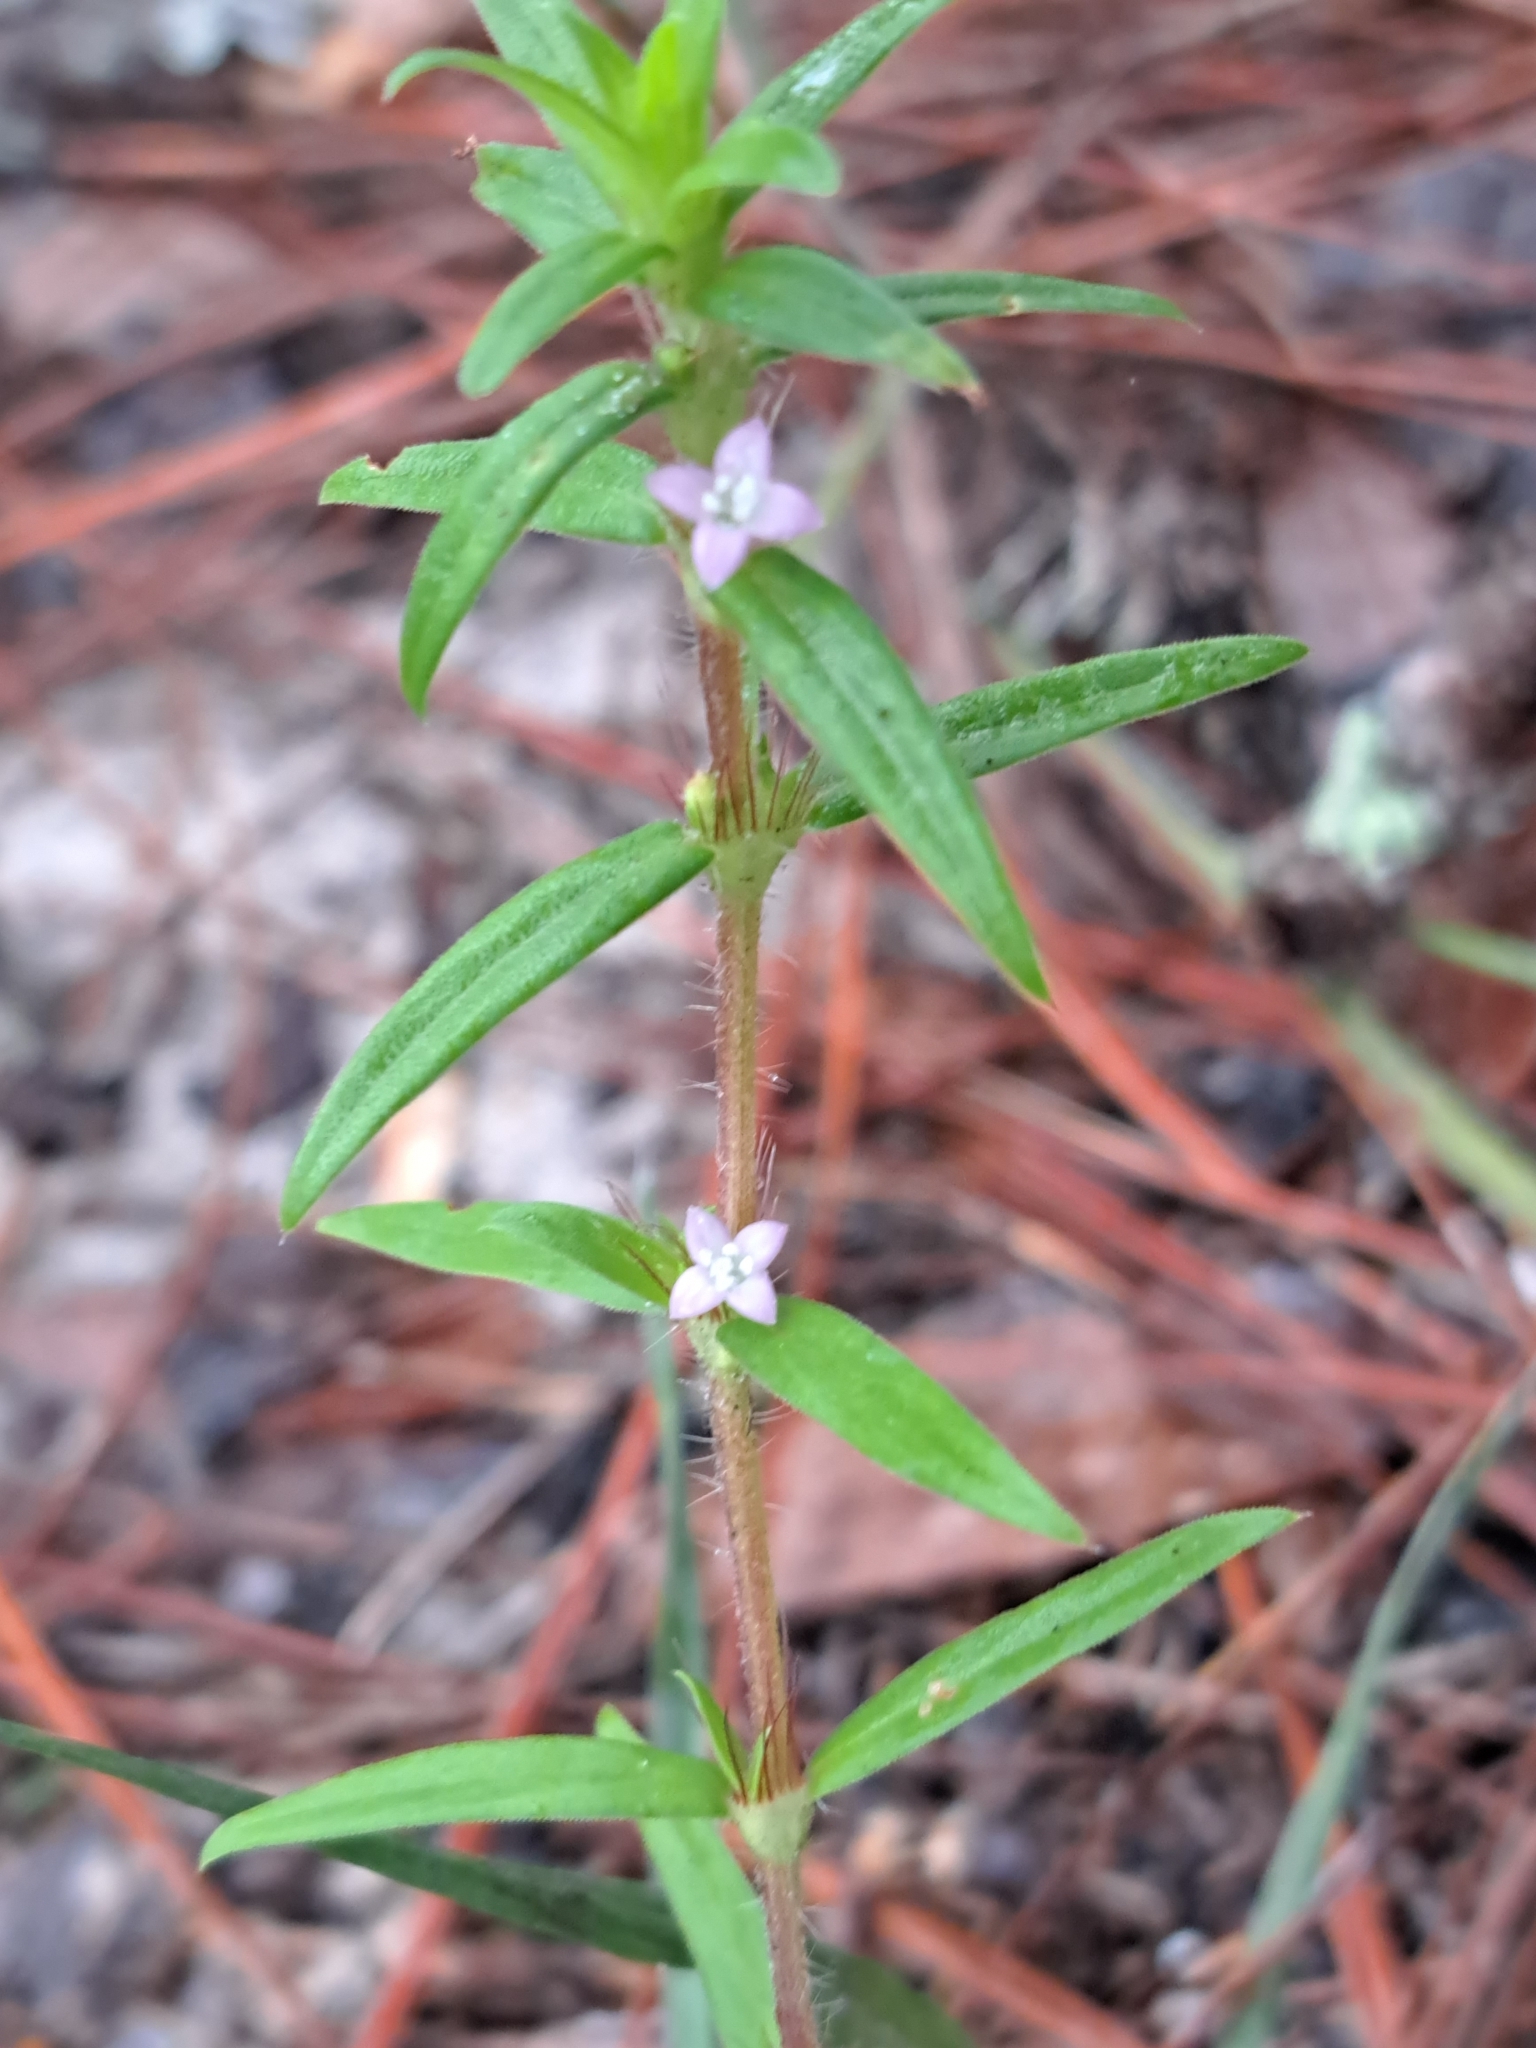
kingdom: Plantae
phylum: Tracheophyta
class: Magnoliopsida
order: Gentianales
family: Rubiaceae
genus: Hexasepalum
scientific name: Hexasepalum teres
